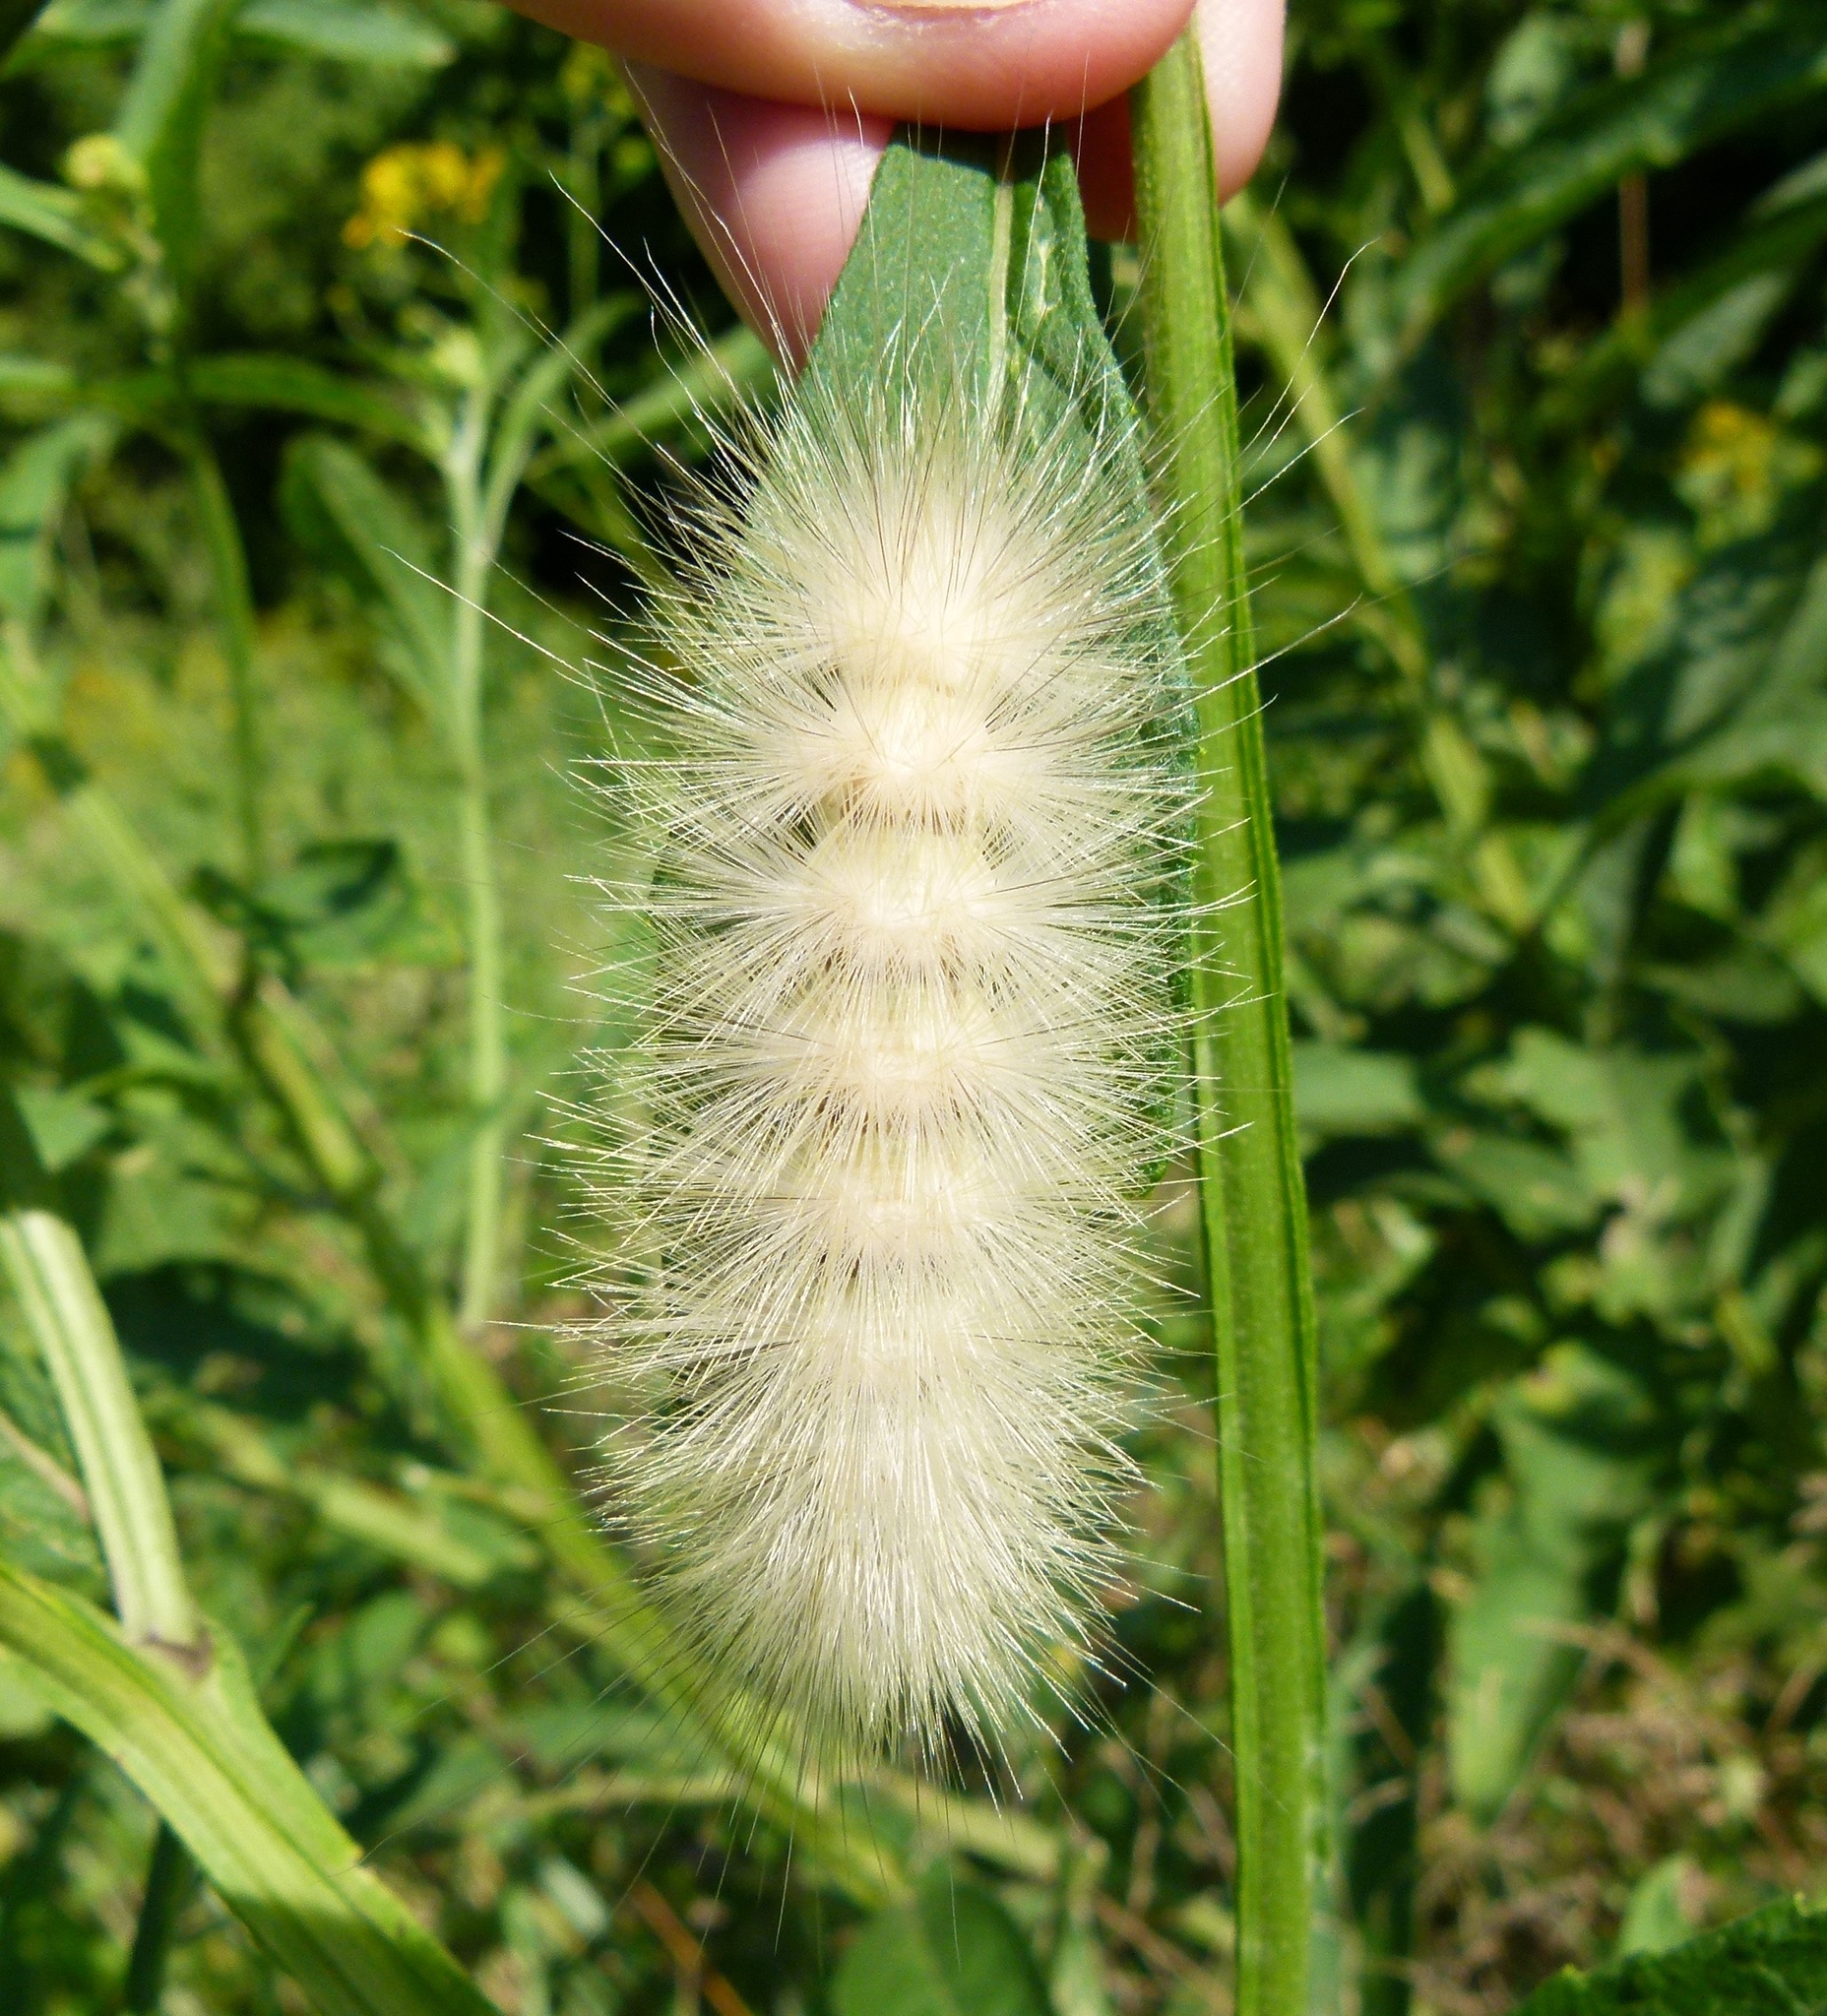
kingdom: Animalia
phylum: Arthropoda
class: Insecta
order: Lepidoptera
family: Erebidae
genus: Spilosoma
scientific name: Spilosoma virginica
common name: Virginia tiger moth
